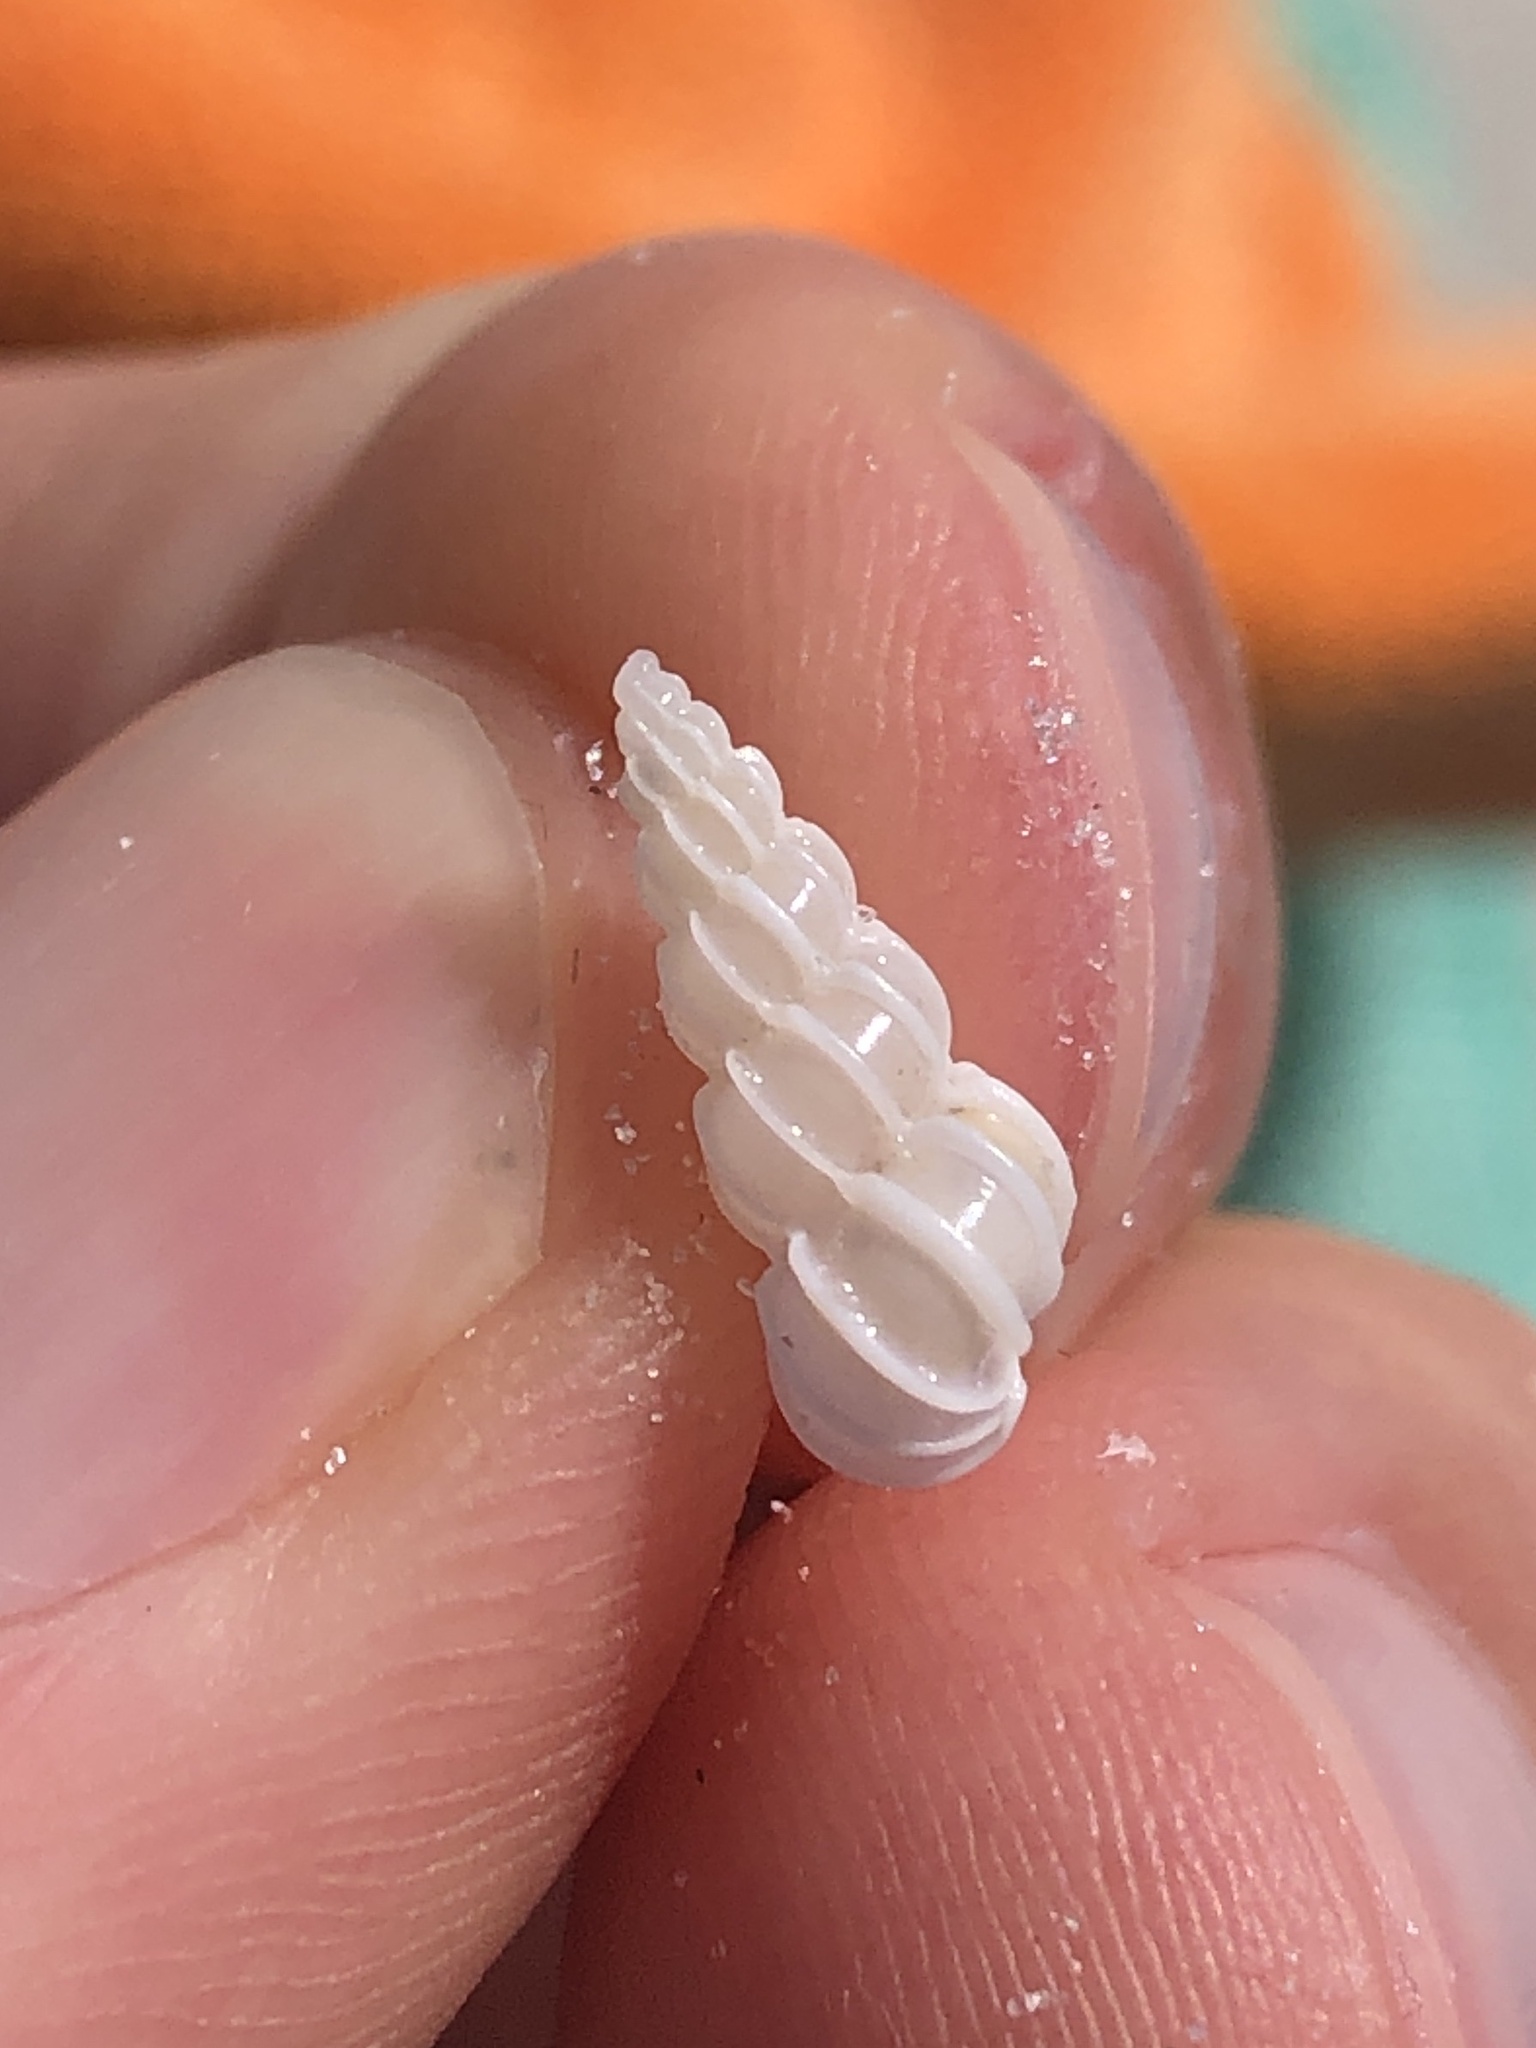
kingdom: Animalia
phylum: Mollusca
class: Gastropoda
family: Epitoniidae
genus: Epitonium
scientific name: Epitonium humphreysii
